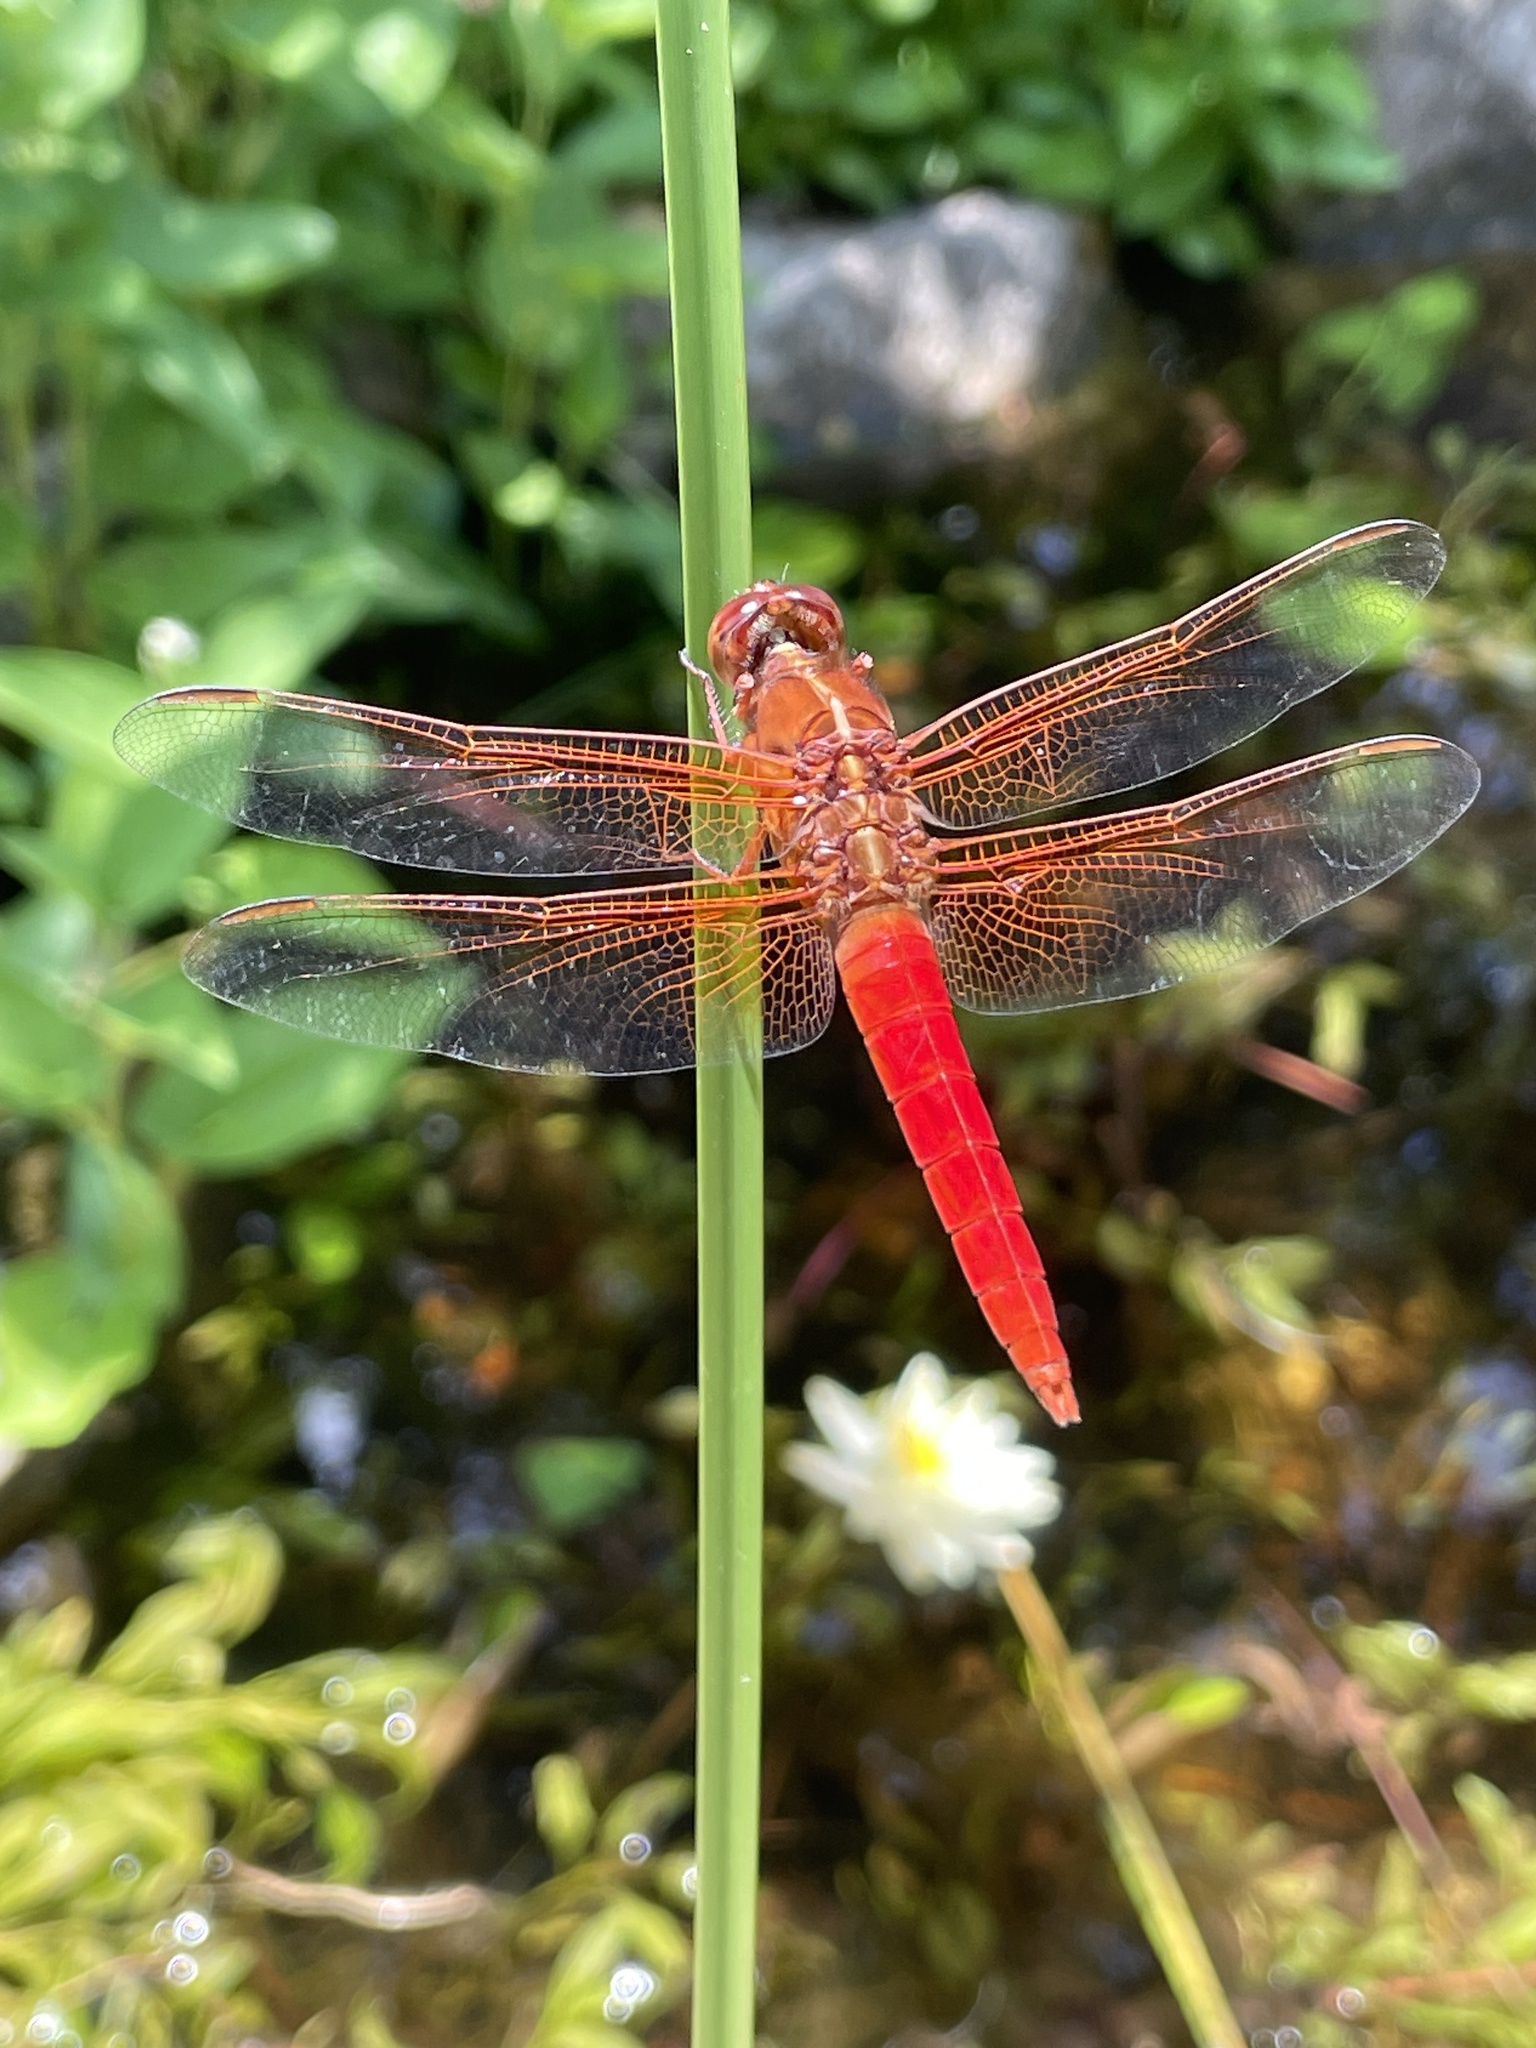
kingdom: Animalia
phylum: Arthropoda
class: Insecta
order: Odonata
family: Libellulidae
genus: Libellula
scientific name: Libellula croceipennis
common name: Neon skimmer
